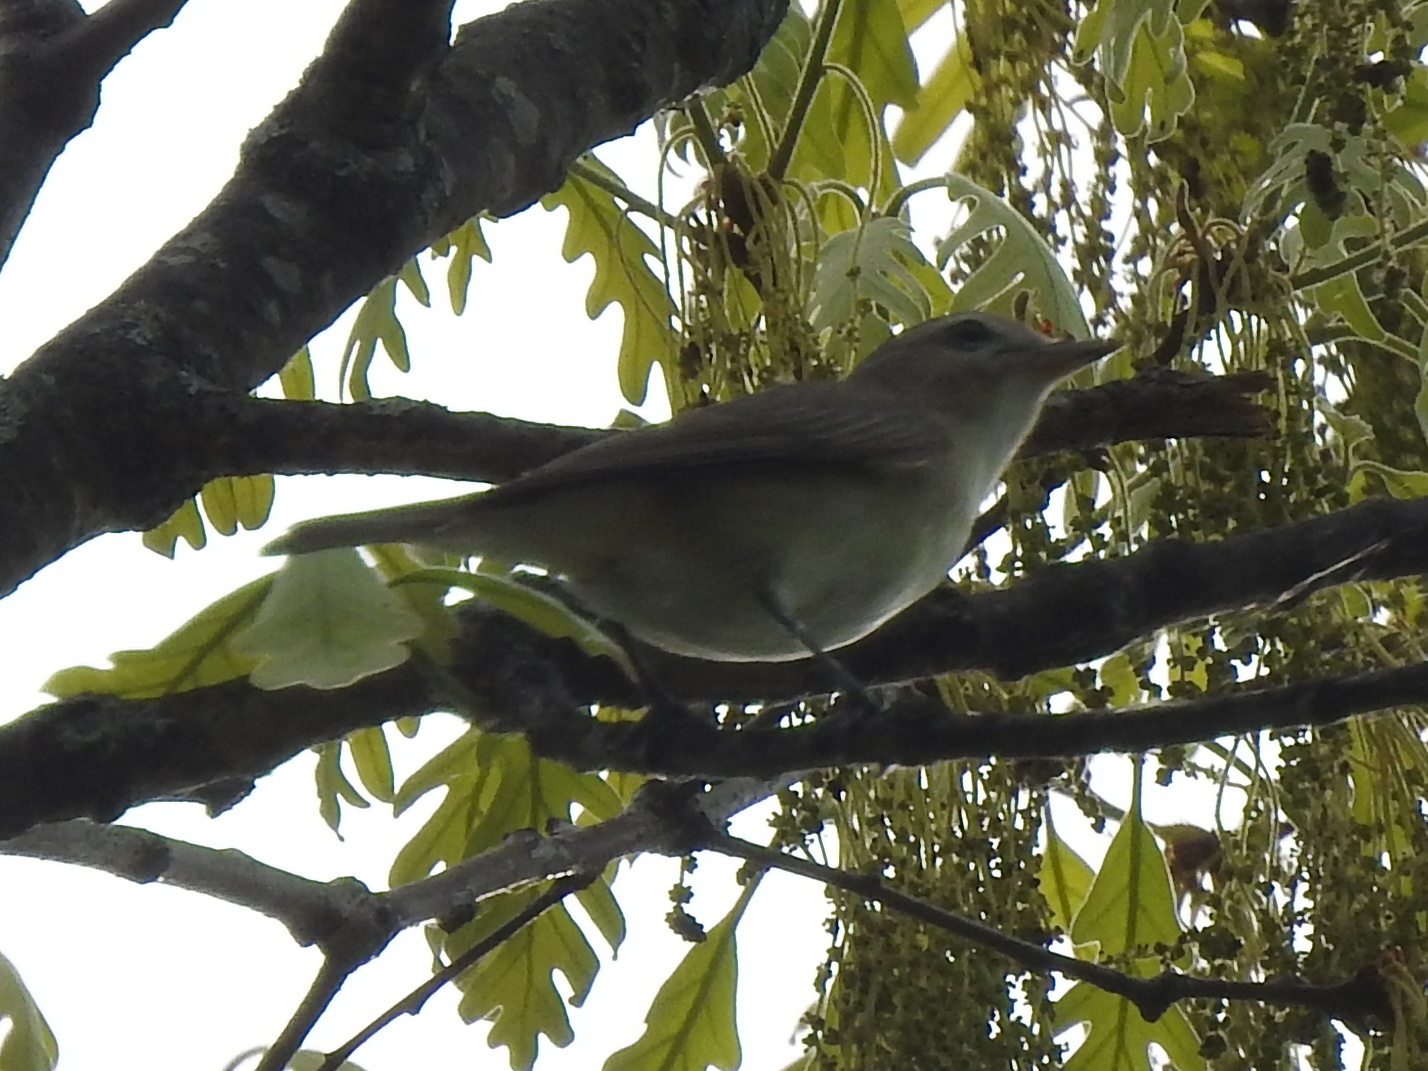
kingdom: Animalia
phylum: Chordata
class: Aves
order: Passeriformes
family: Vireonidae
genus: Vireo
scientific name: Vireo gilvus
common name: Warbling vireo
